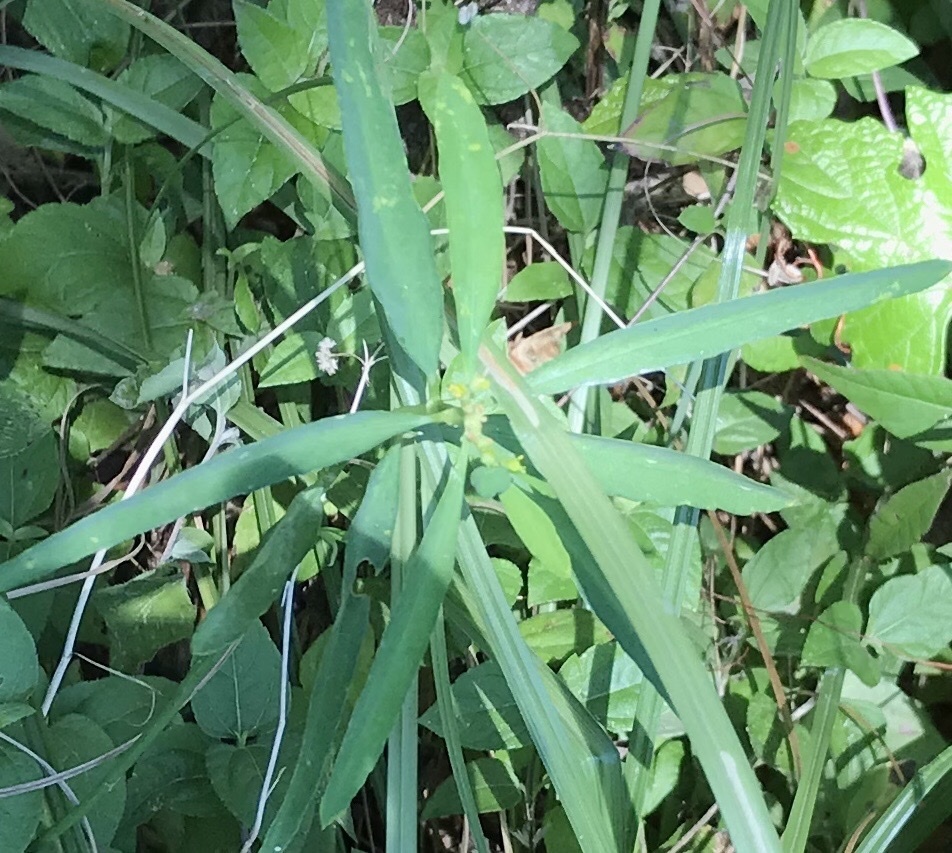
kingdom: Plantae
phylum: Tracheophyta
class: Magnoliopsida
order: Malpighiales
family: Euphorbiaceae
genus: Euphorbia
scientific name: Euphorbia heterophylla
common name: Mexican fireplant
